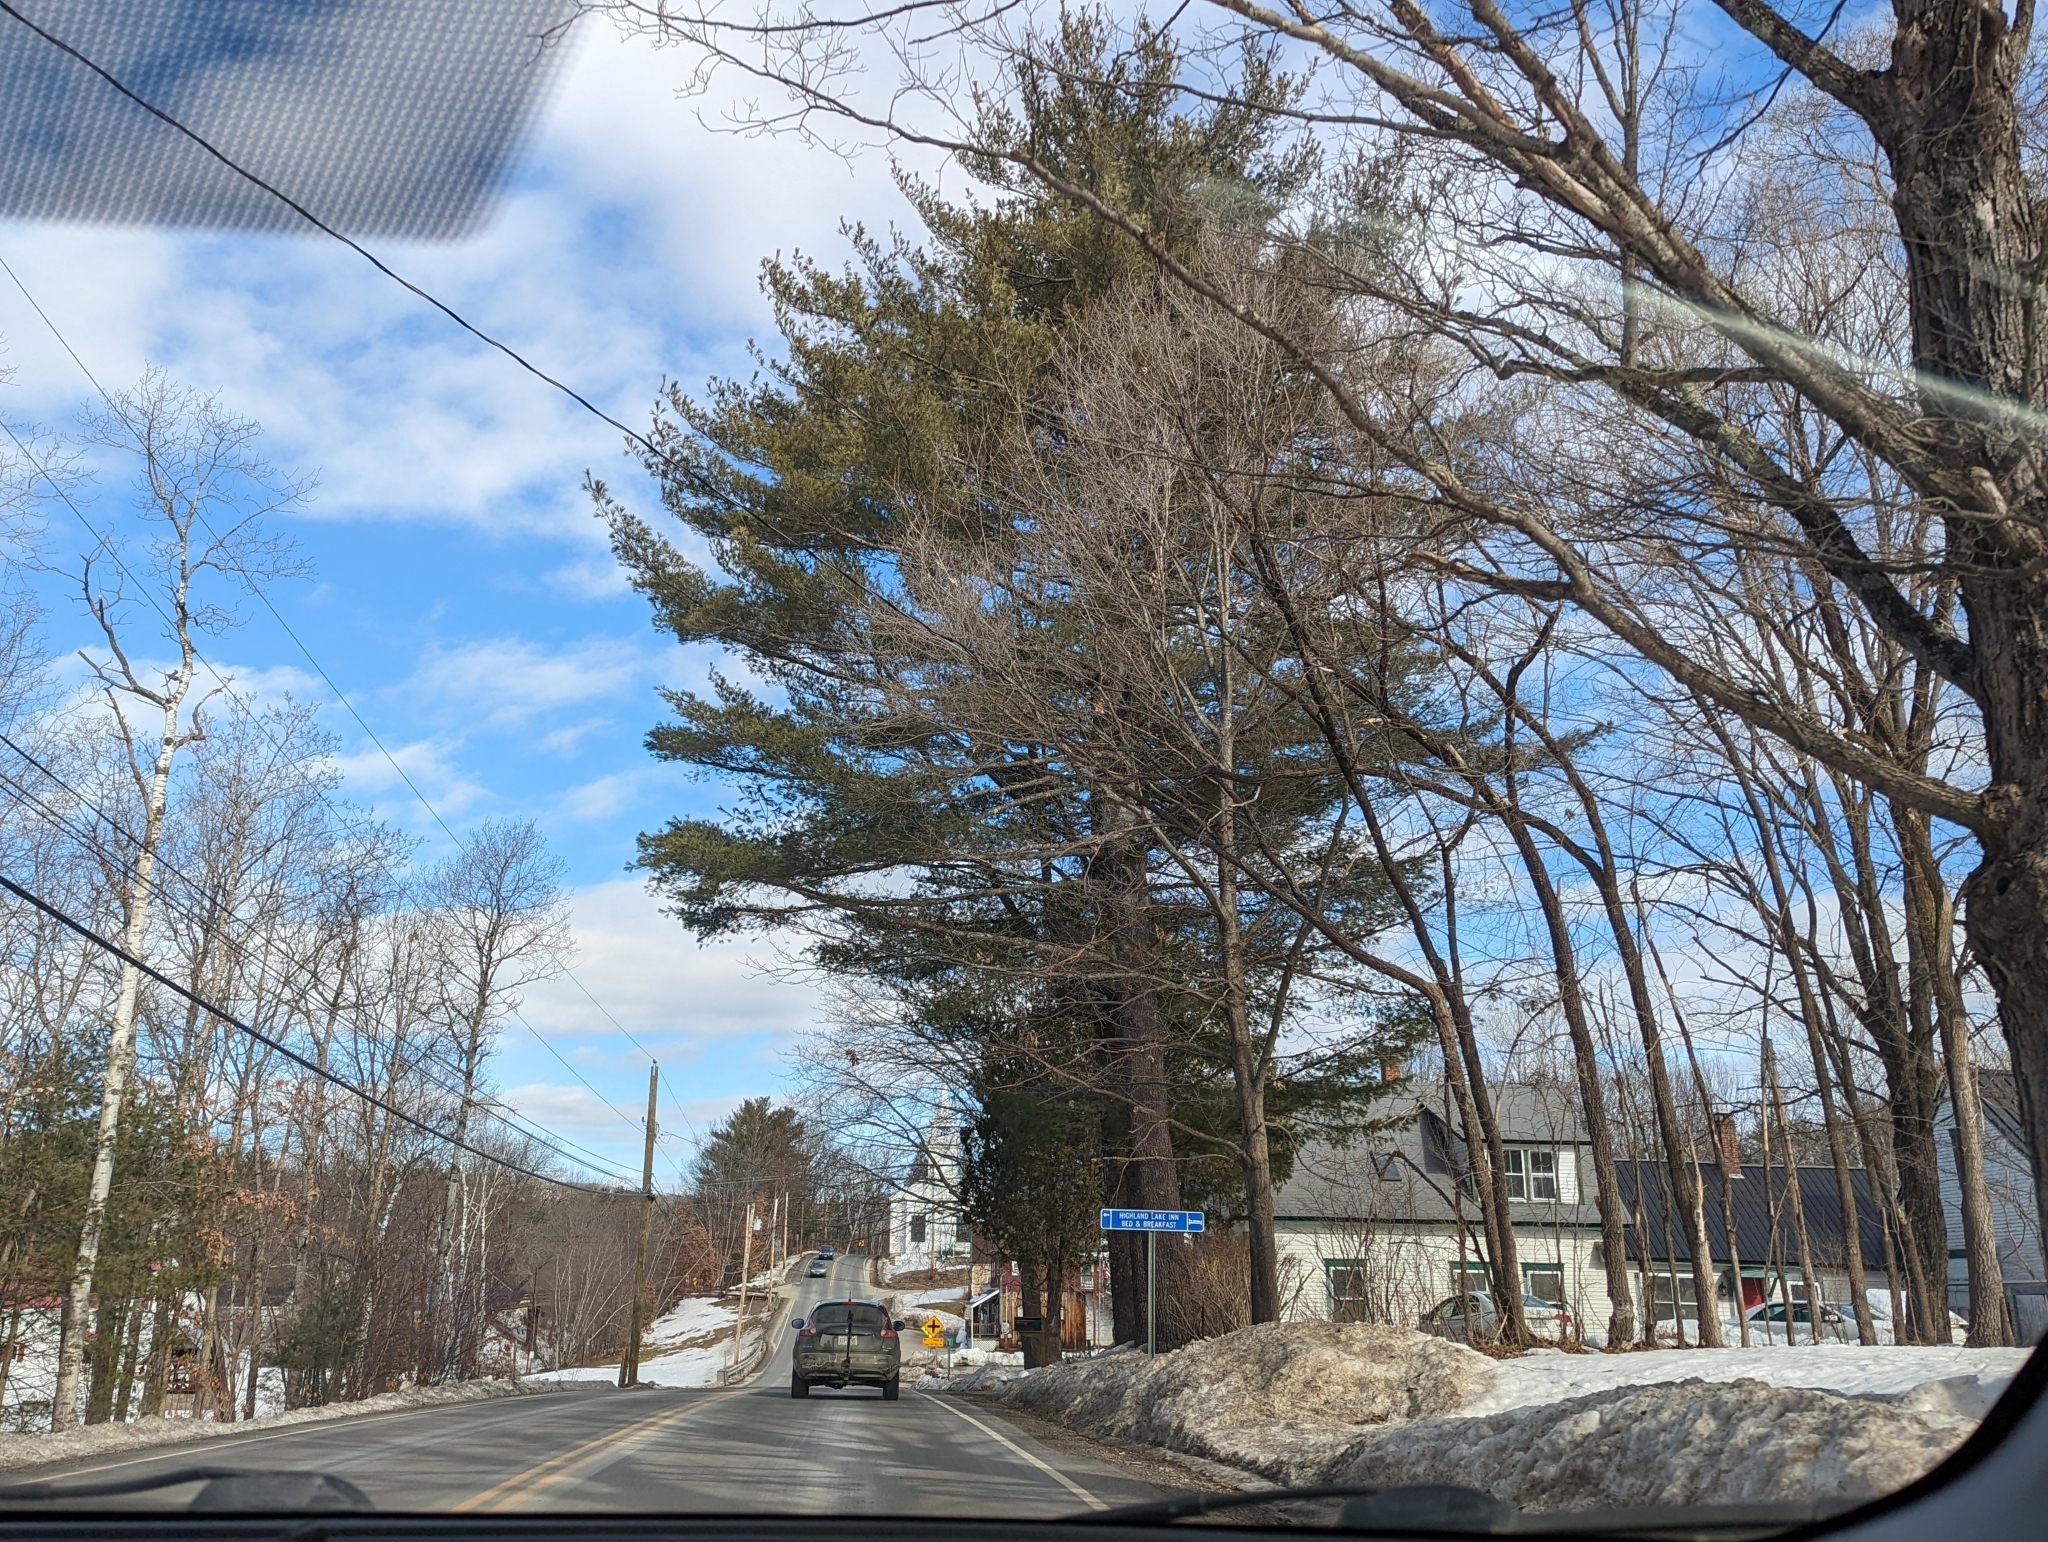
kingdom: Plantae
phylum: Tracheophyta
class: Pinopsida
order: Pinales
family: Pinaceae
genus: Pinus
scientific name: Pinus strobus
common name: Weymouth pine
